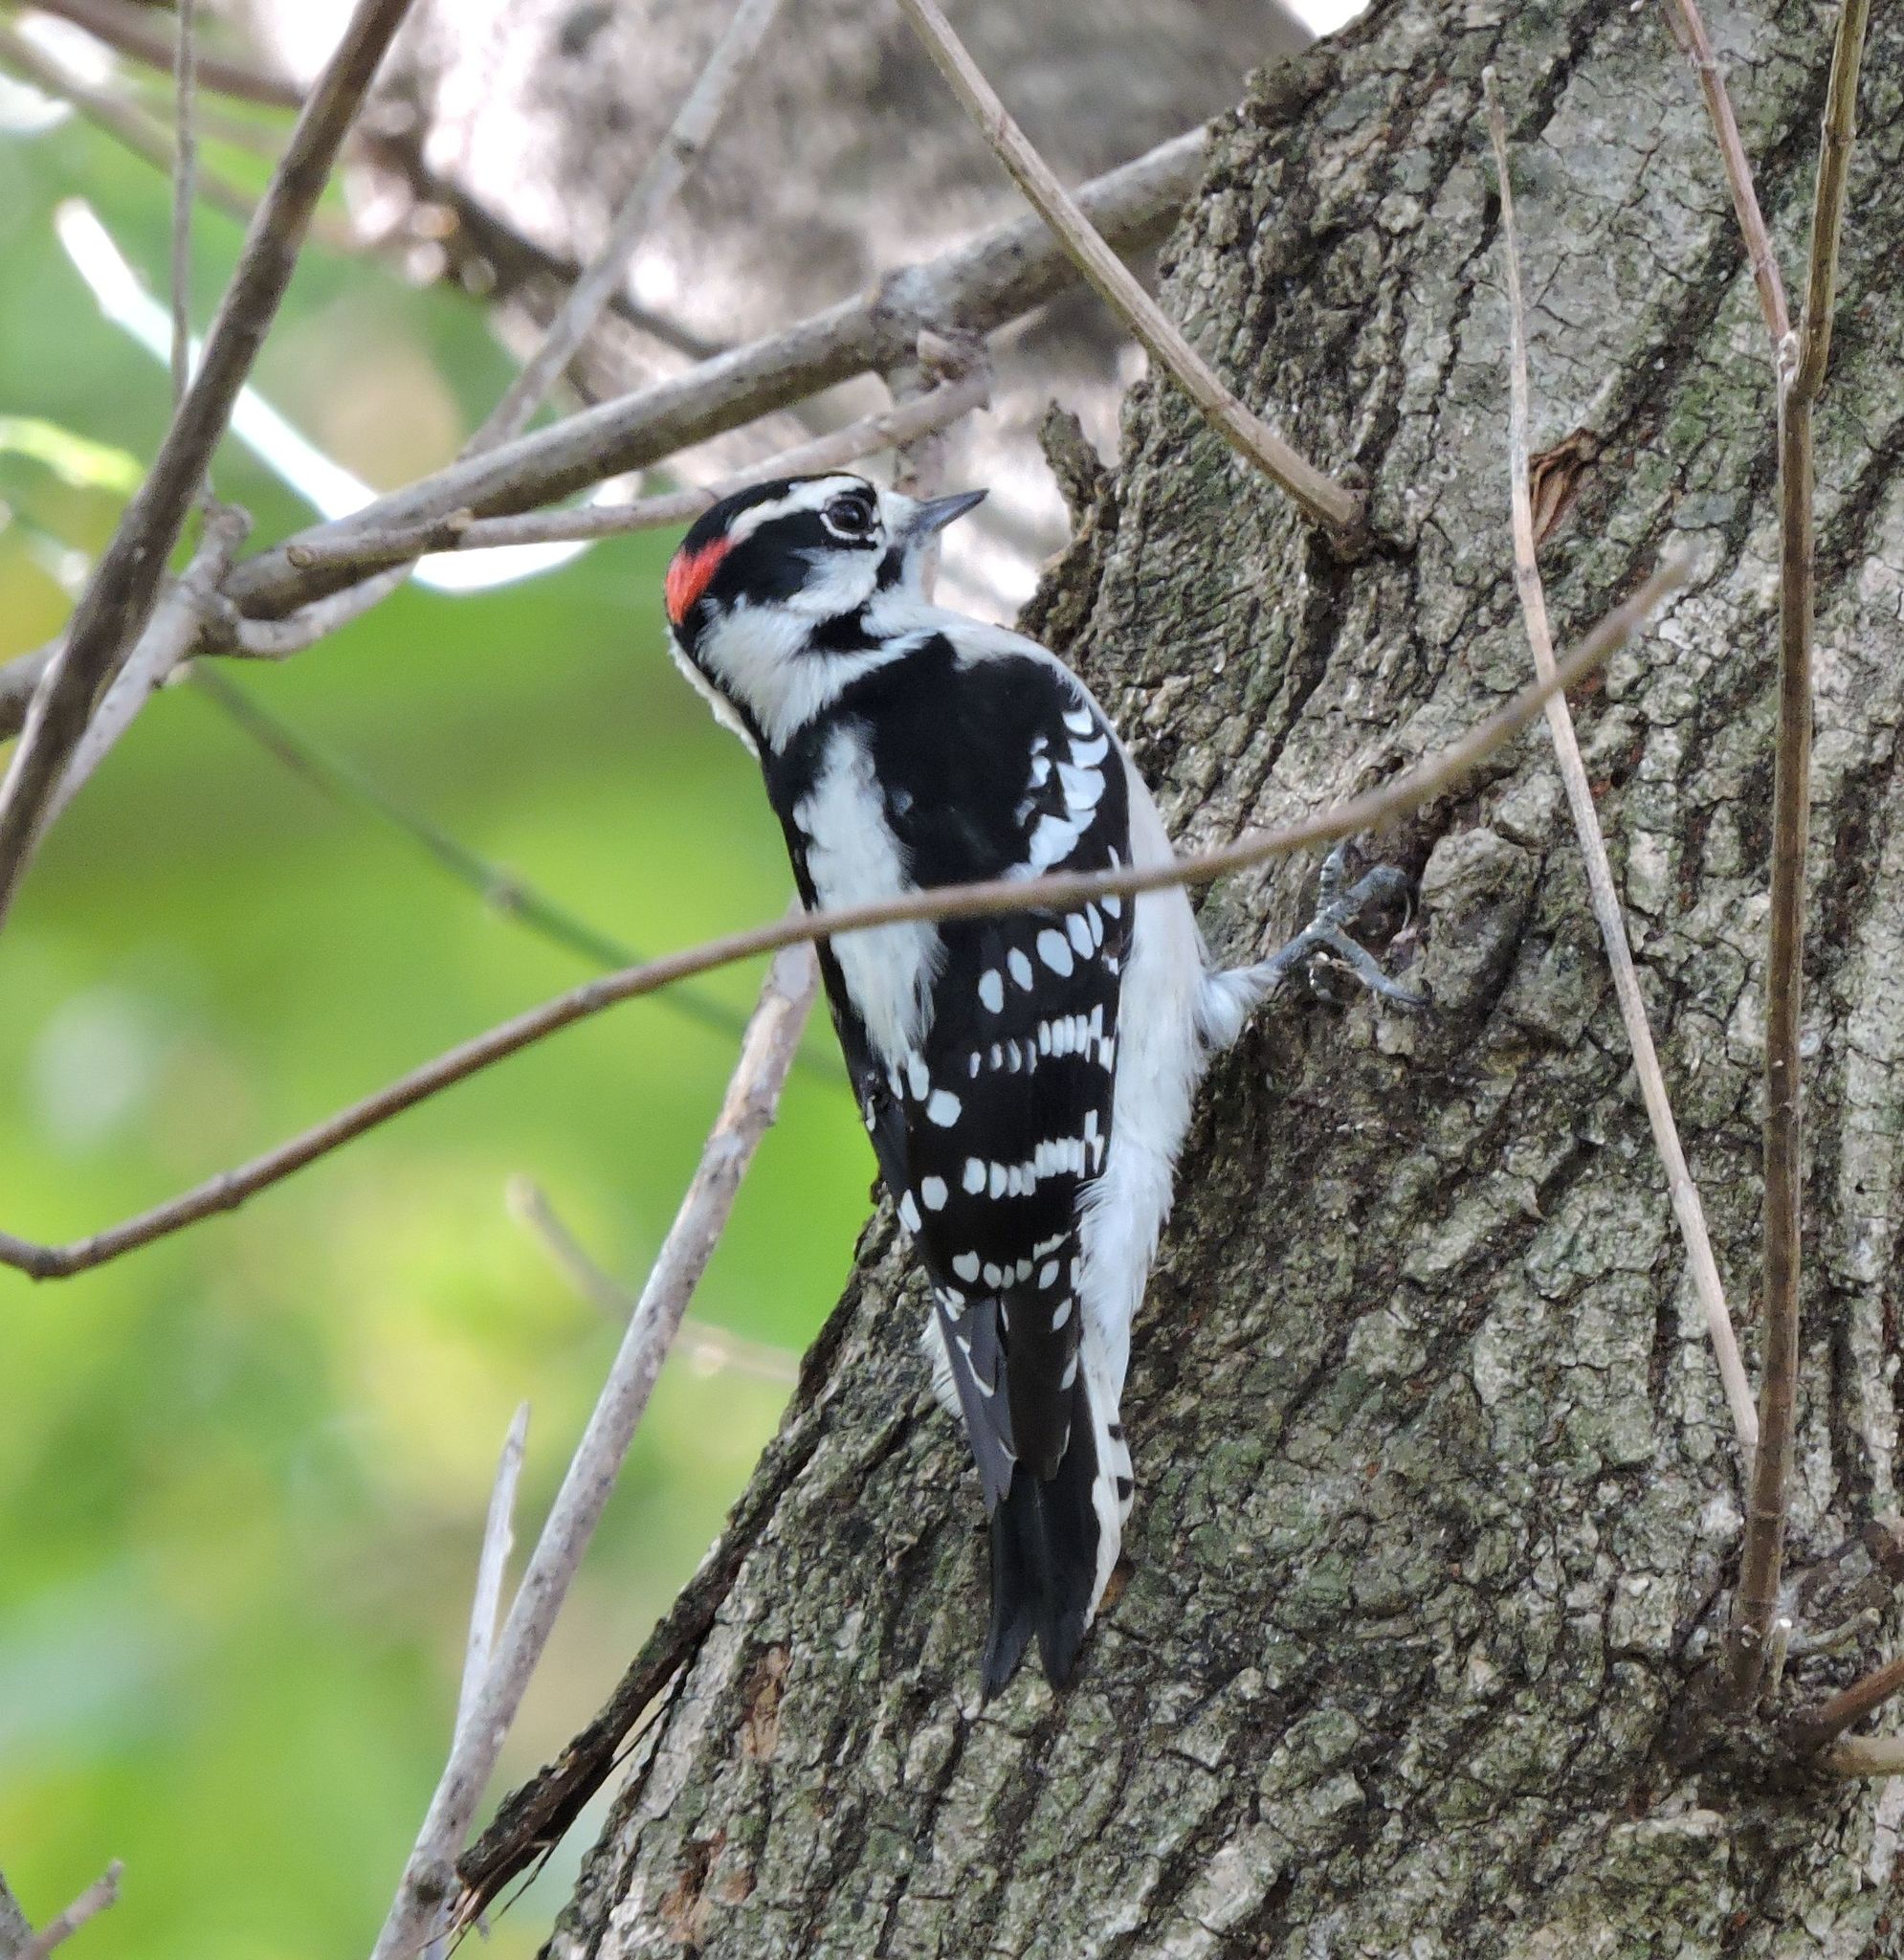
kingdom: Animalia
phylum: Chordata
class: Aves
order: Piciformes
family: Picidae
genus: Dryobates
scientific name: Dryobates pubescens
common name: Downy woodpecker
